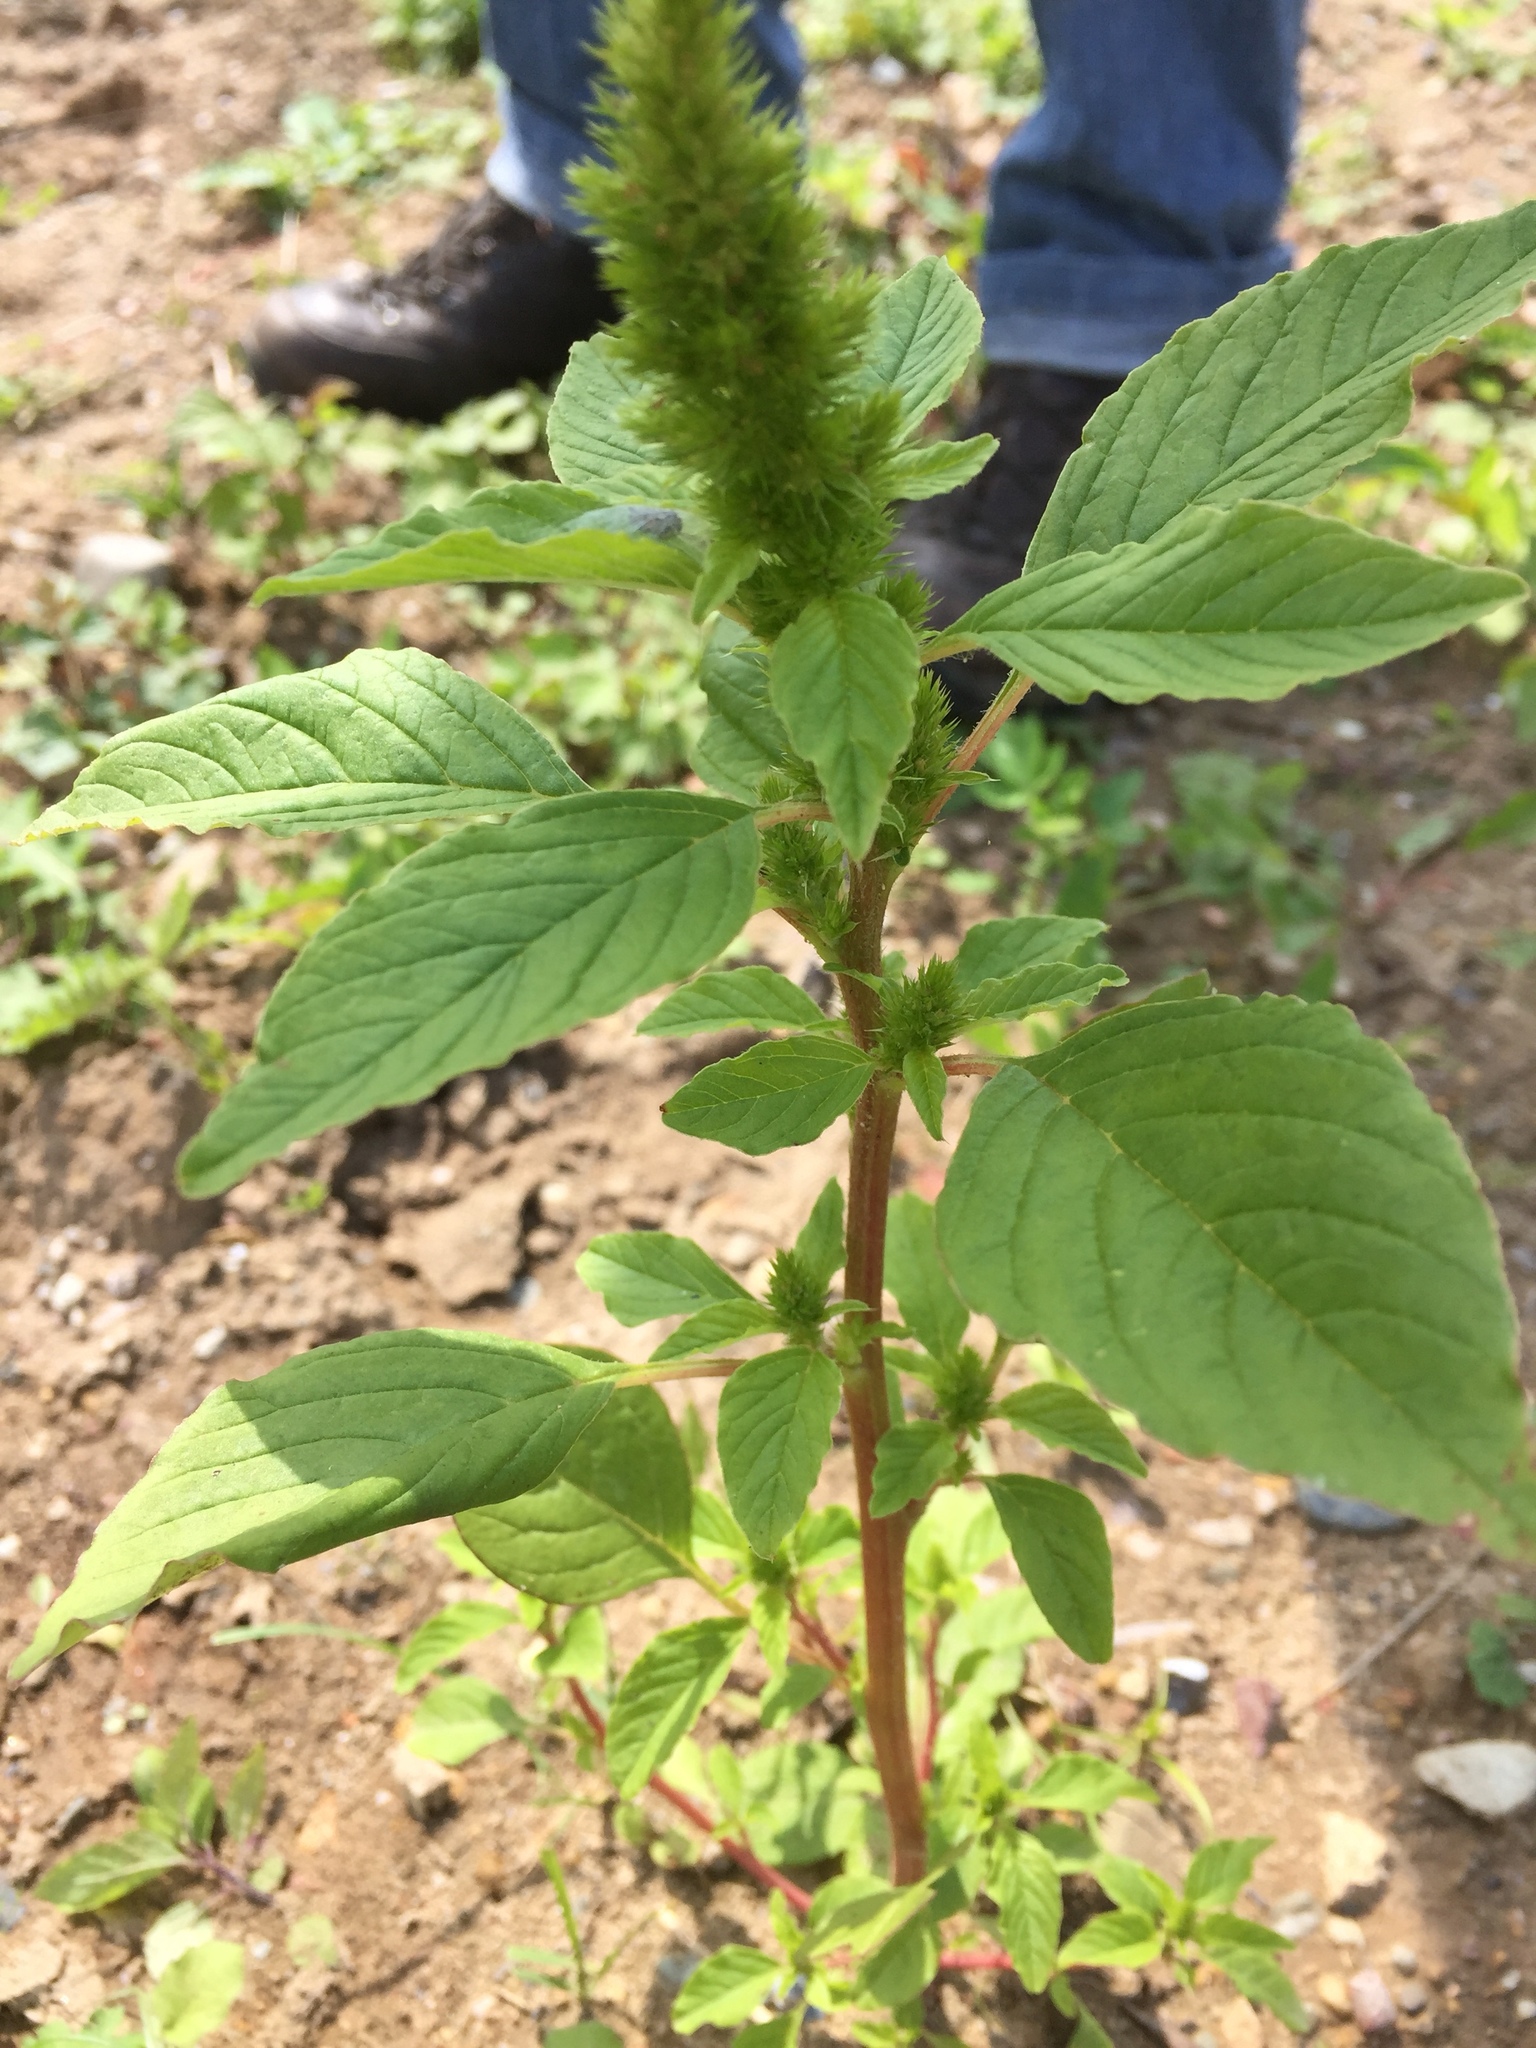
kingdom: Plantae
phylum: Tracheophyta
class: Magnoliopsida
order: Caryophyllales
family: Amaranthaceae
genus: Amaranthus
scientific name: Amaranthus hybridus
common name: Green amaranth
